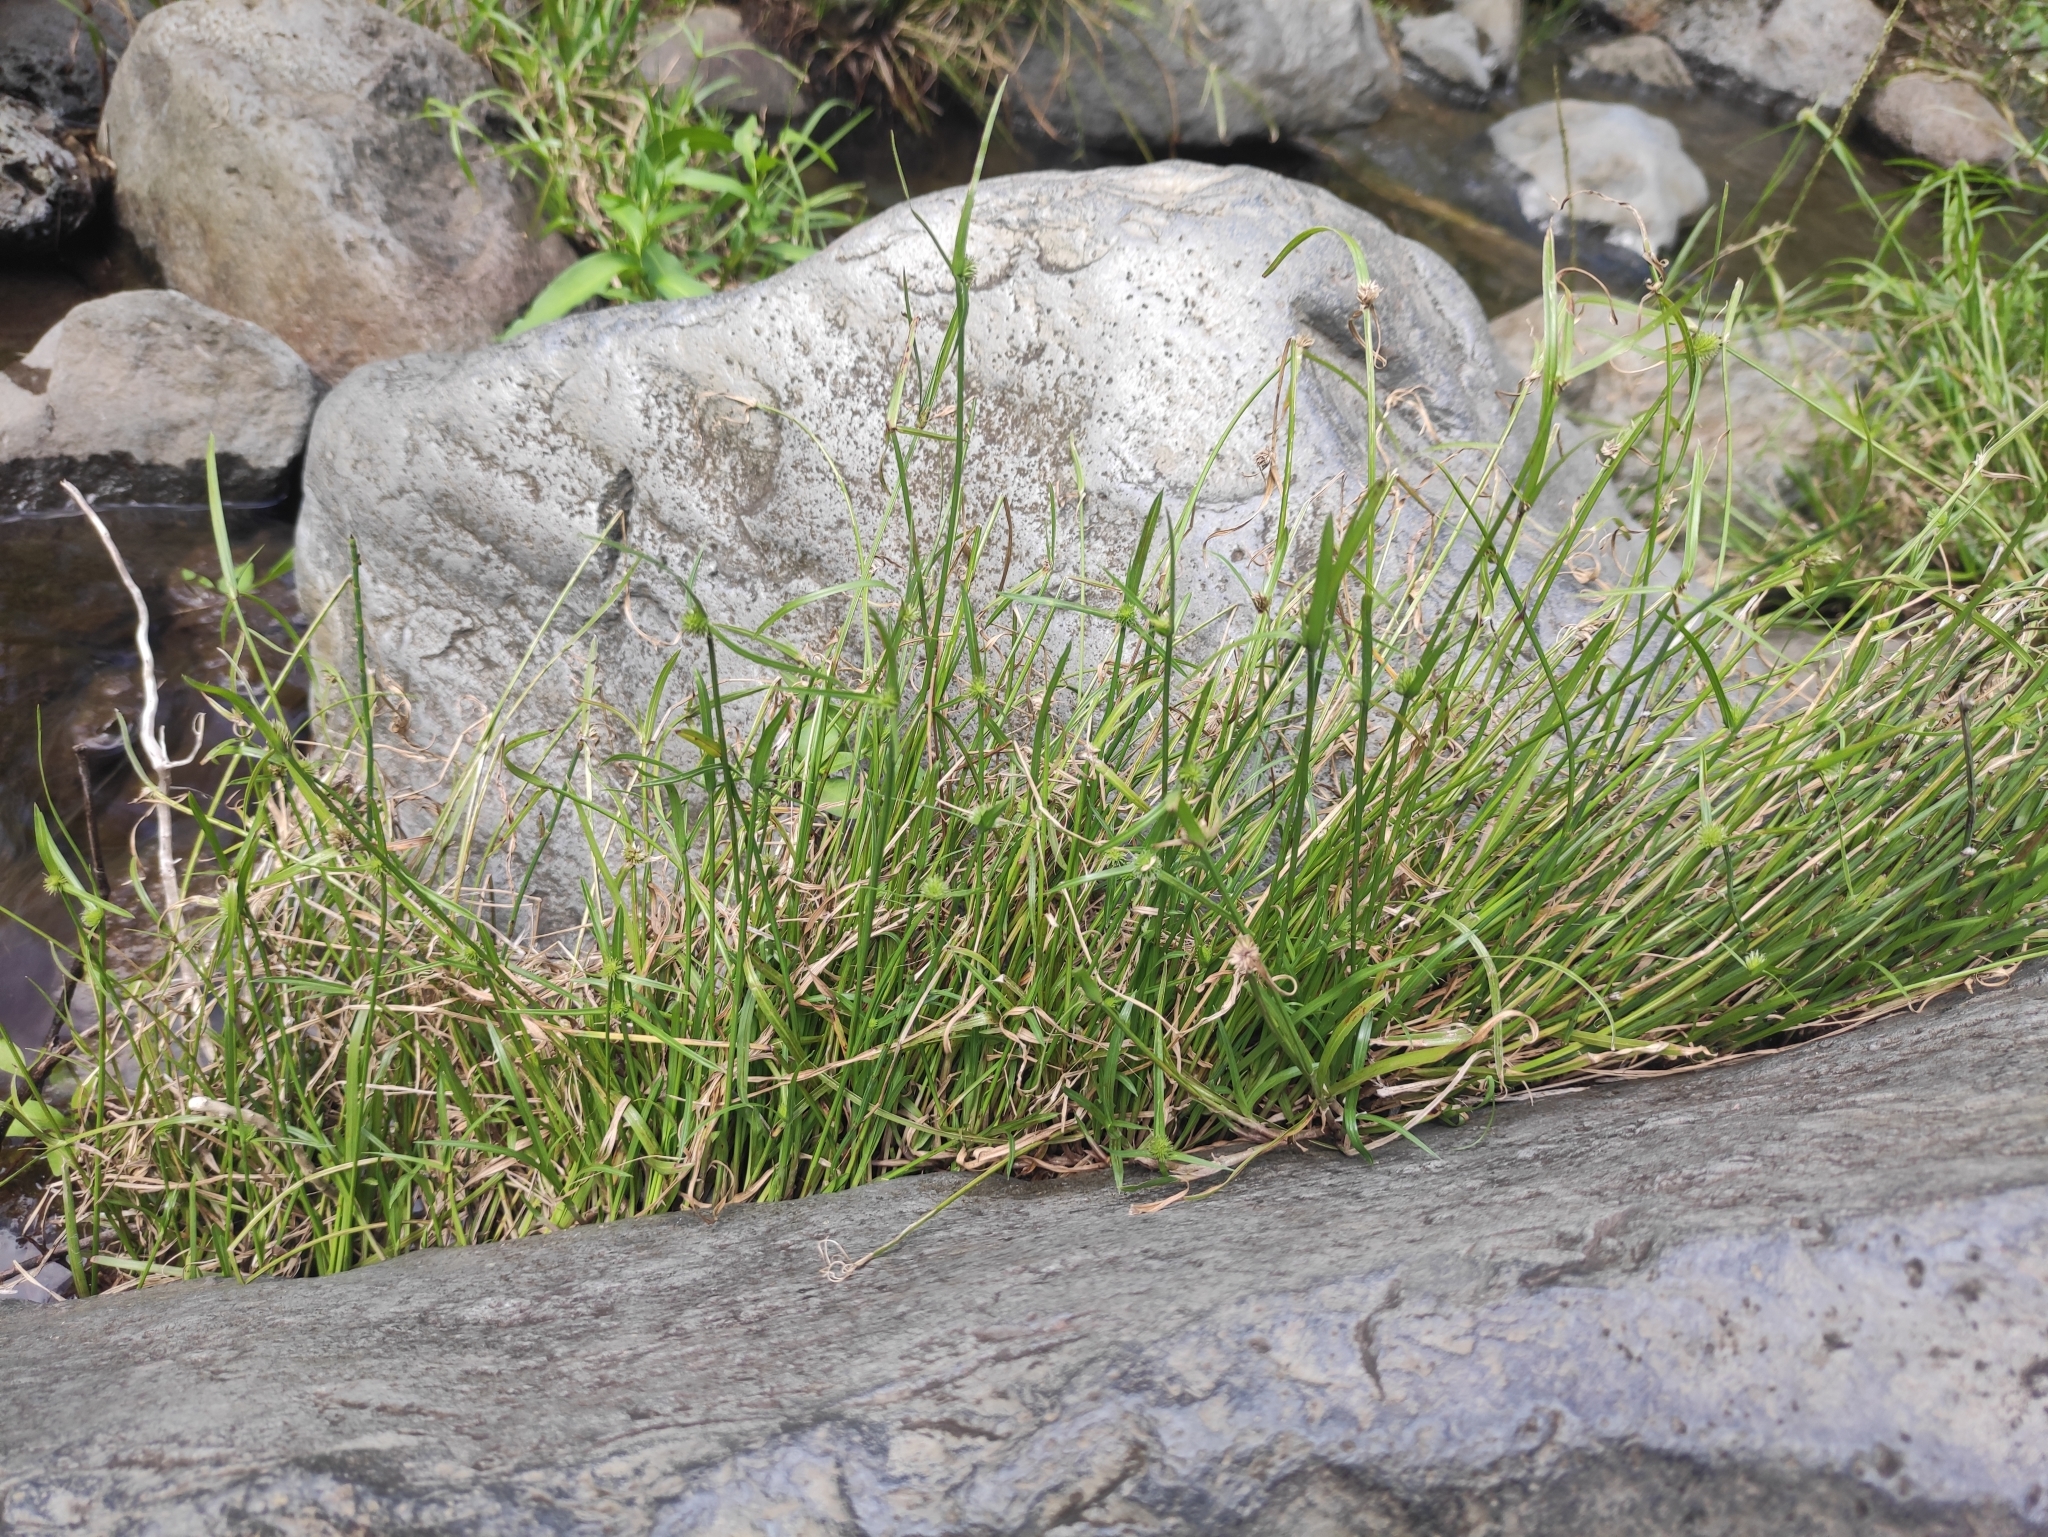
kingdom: Plantae
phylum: Tracheophyta
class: Liliopsida
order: Poales
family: Cyperaceae
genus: Cyperus
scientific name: Cyperus brevifolius
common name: Globe kyllinga
